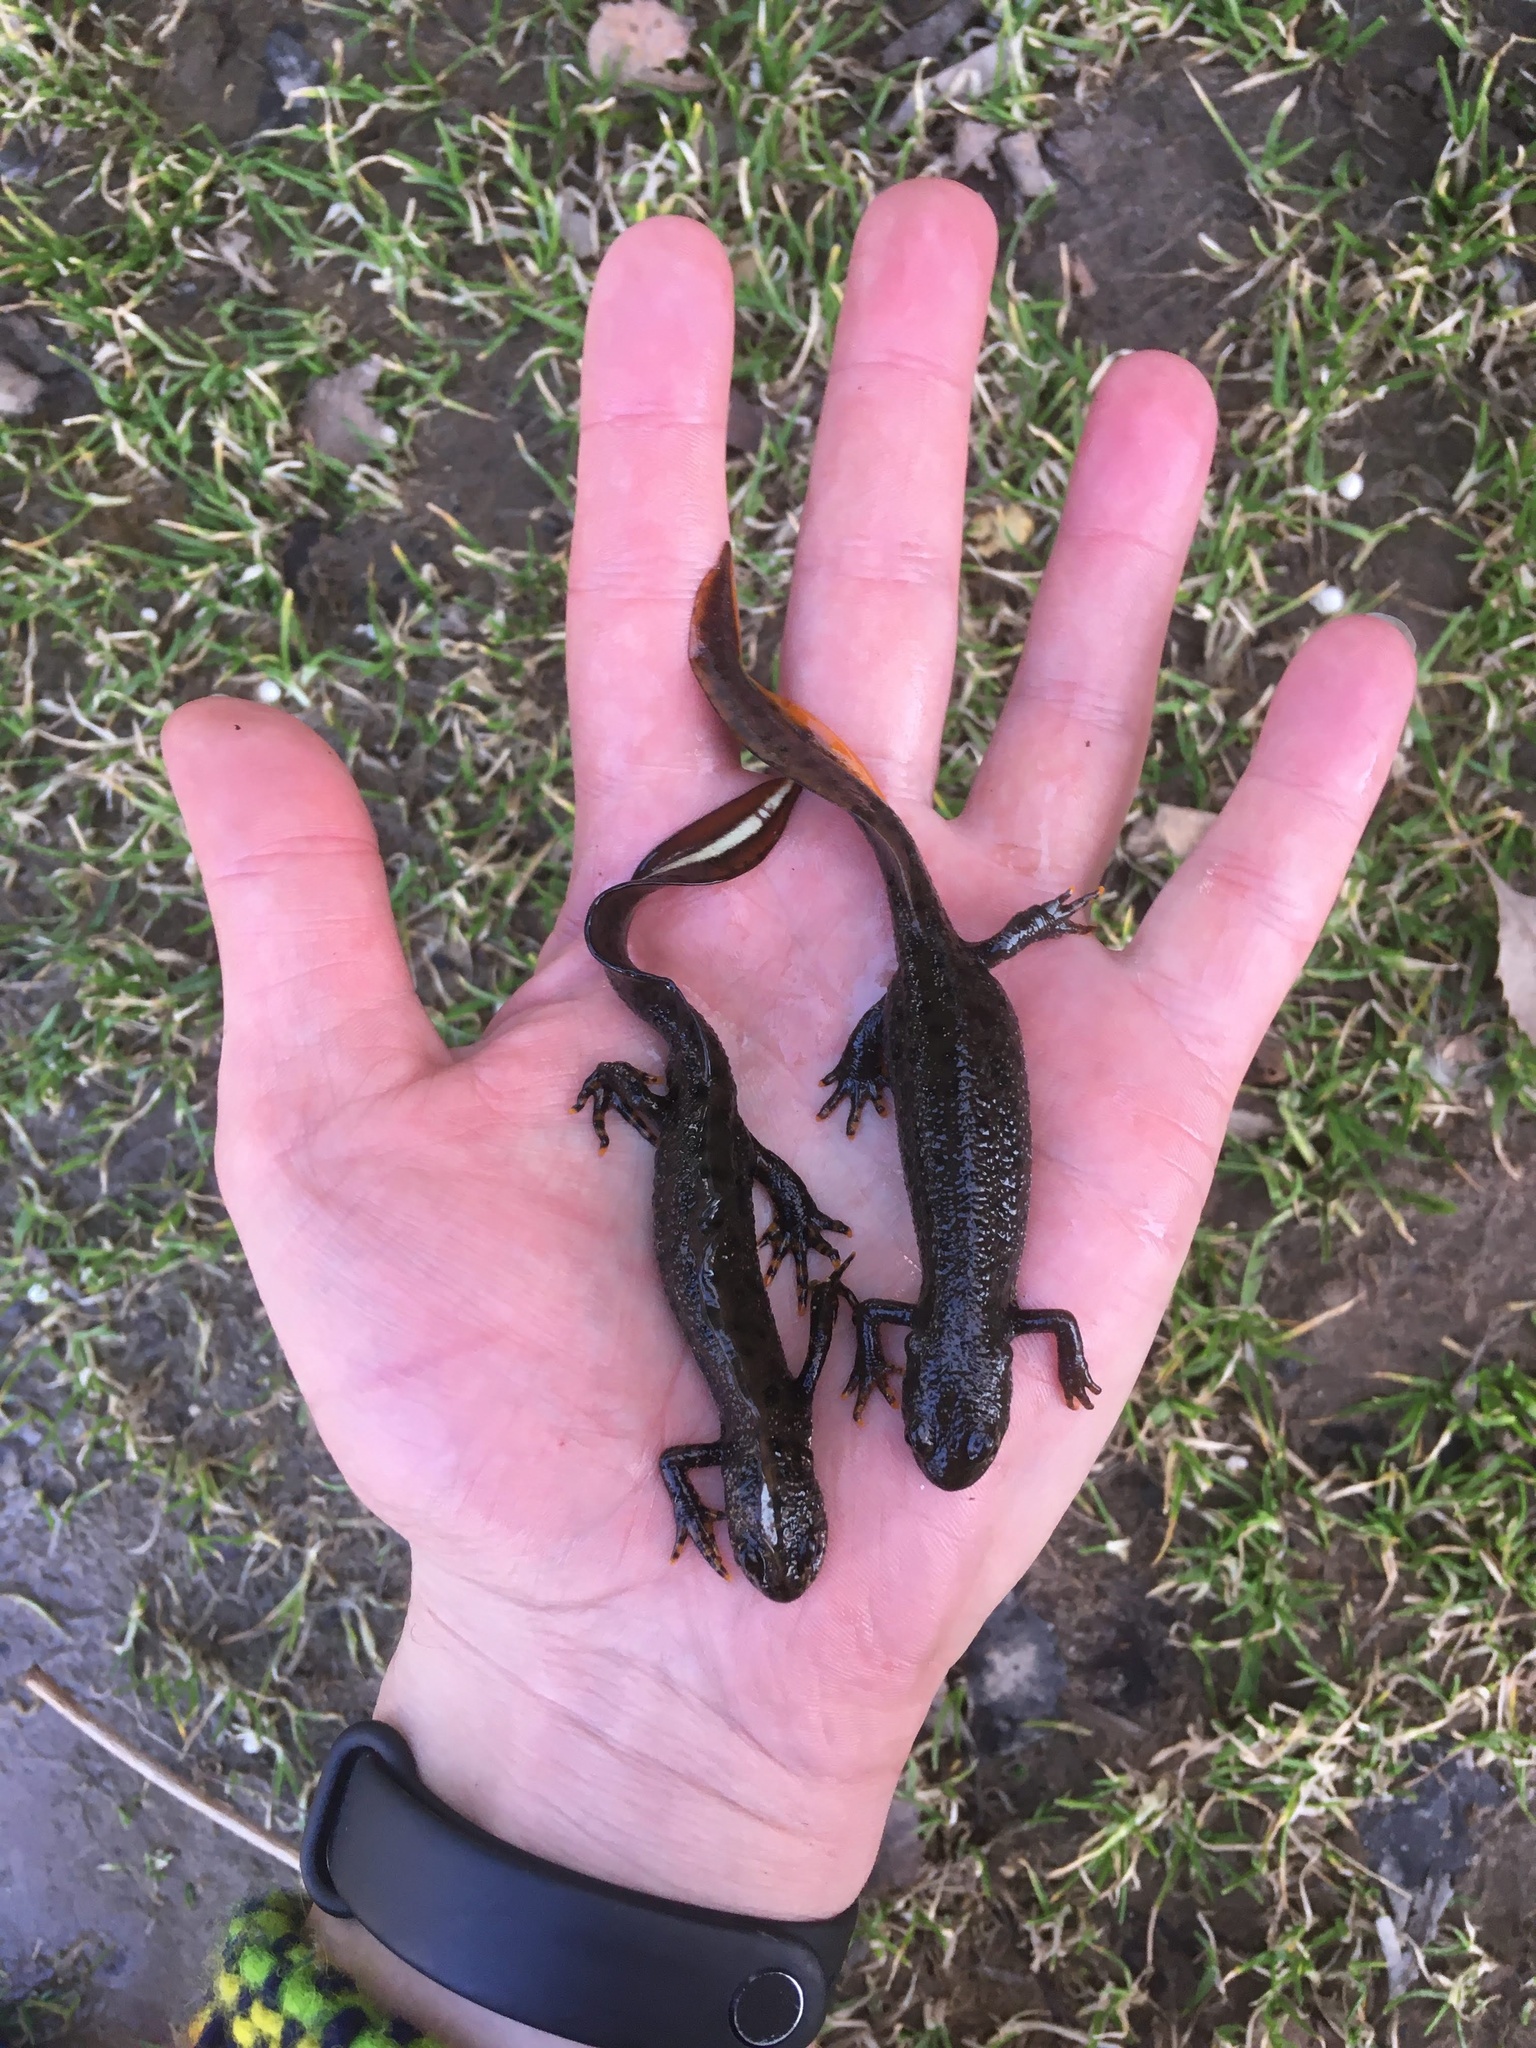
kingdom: Animalia
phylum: Chordata
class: Amphibia
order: Caudata
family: Salamandridae
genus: Triturus
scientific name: Triturus cristatus
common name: Crested newt
